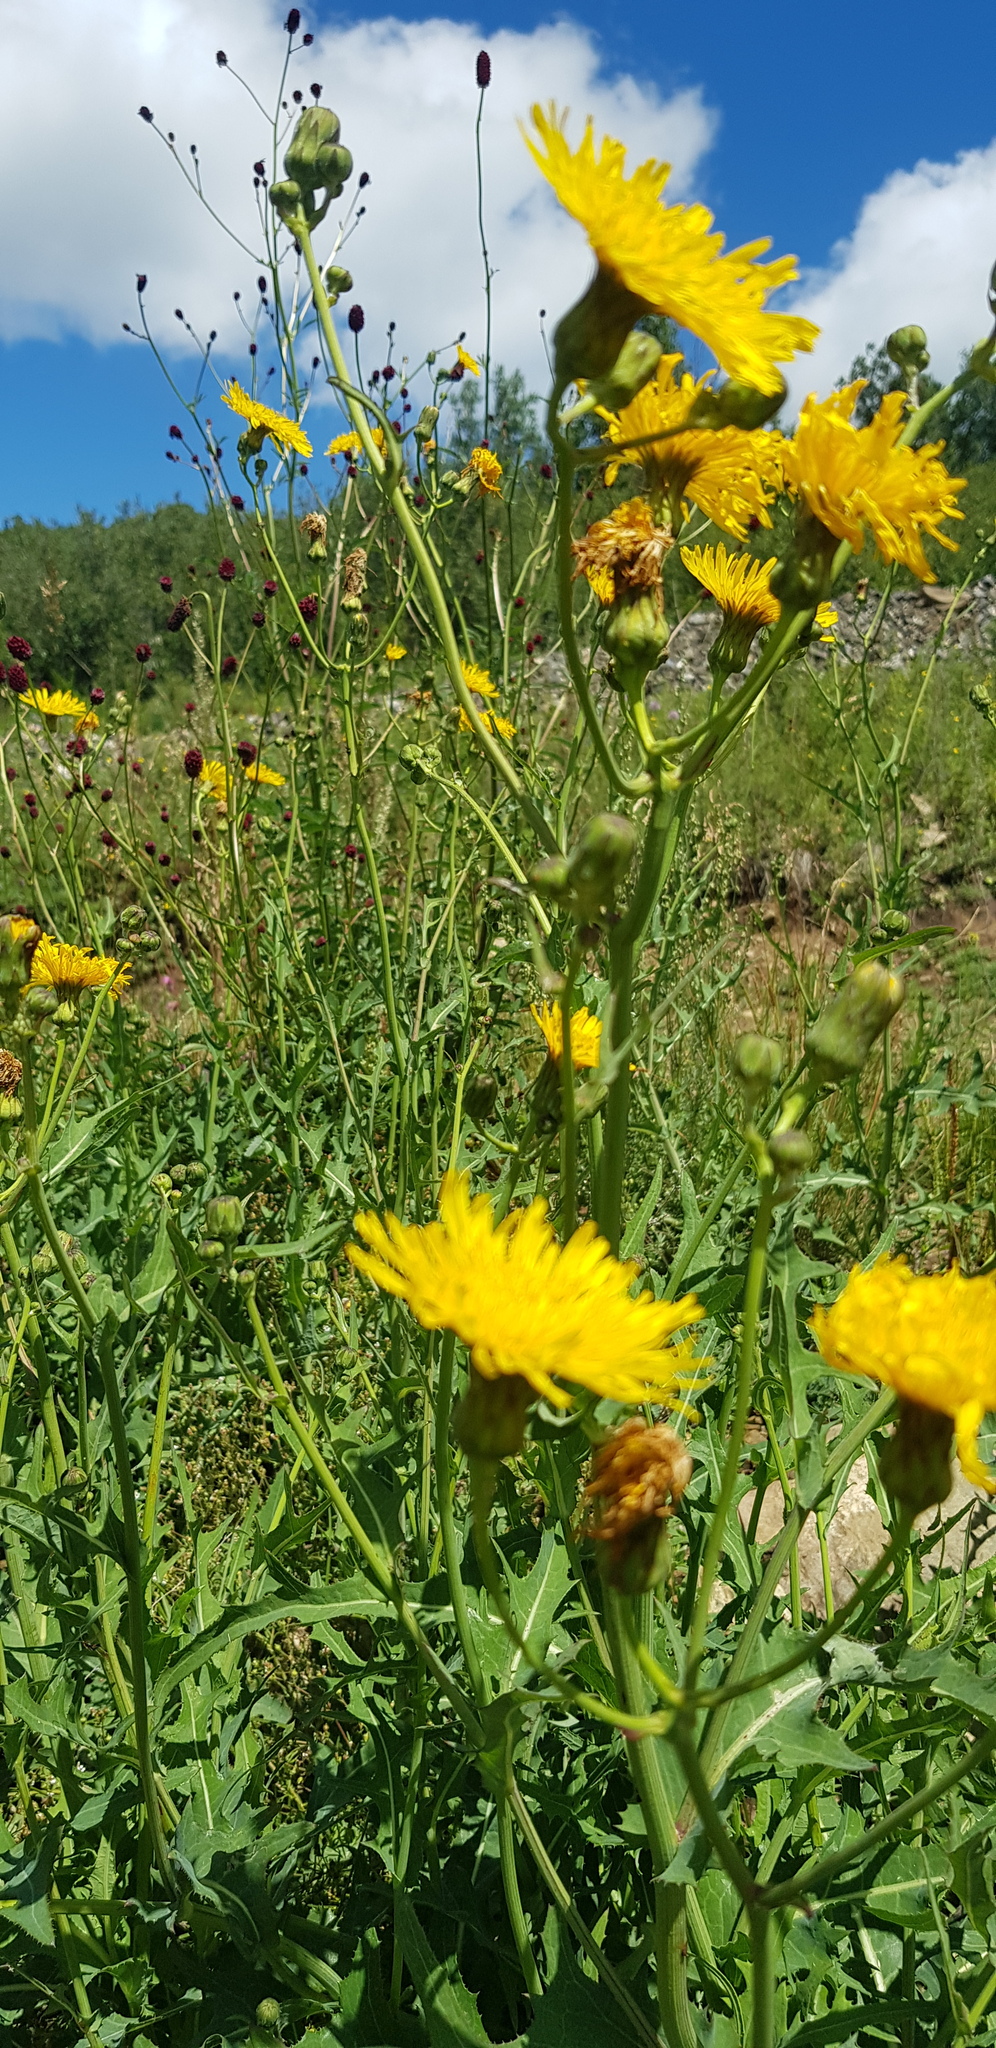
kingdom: Plantae
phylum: Tracheophyta
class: Magnoliopsida
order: Asterales
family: Asteraceae
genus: Sonchus
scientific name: Sonchus oleraceus
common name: Common sowthistle
